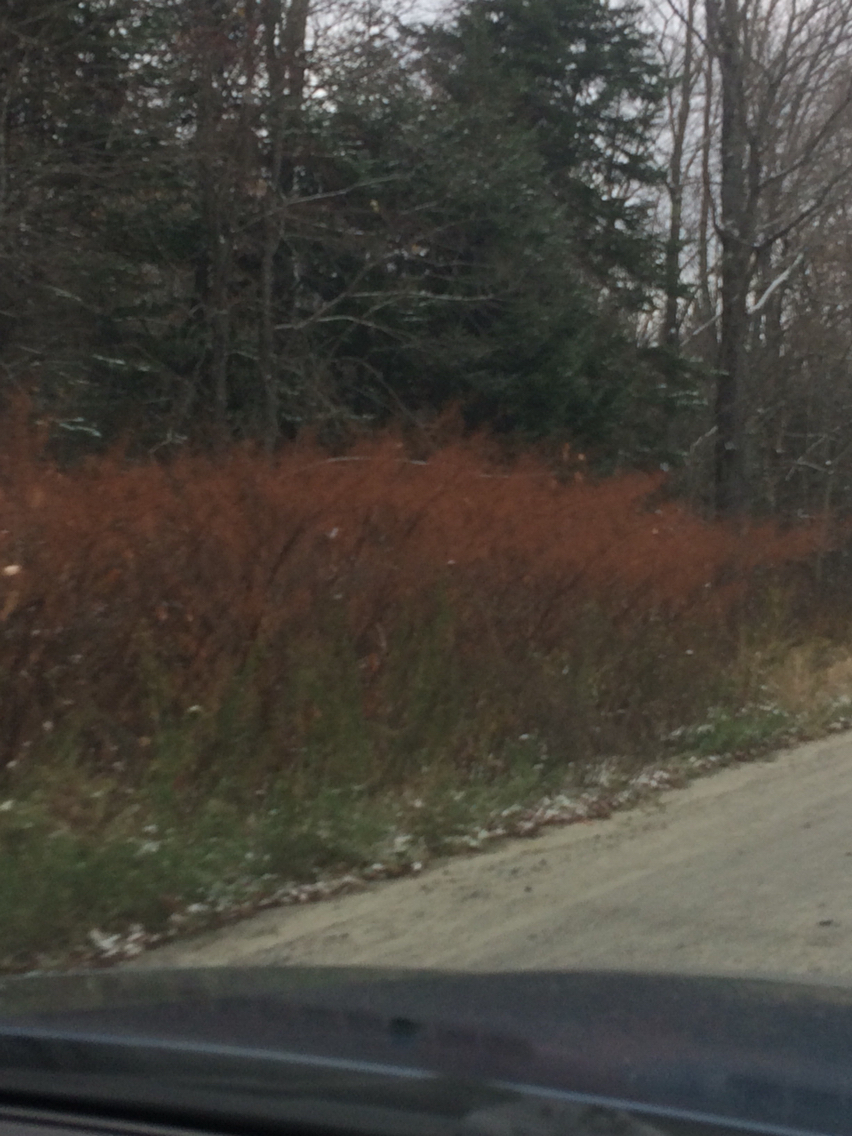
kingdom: Plantae
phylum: Tracheophyta
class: Magnoliopsida
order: Caryophyllales
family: Polygonaceae
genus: Reynoutria
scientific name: Reynoutria japonica
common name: Japanese knotweed
